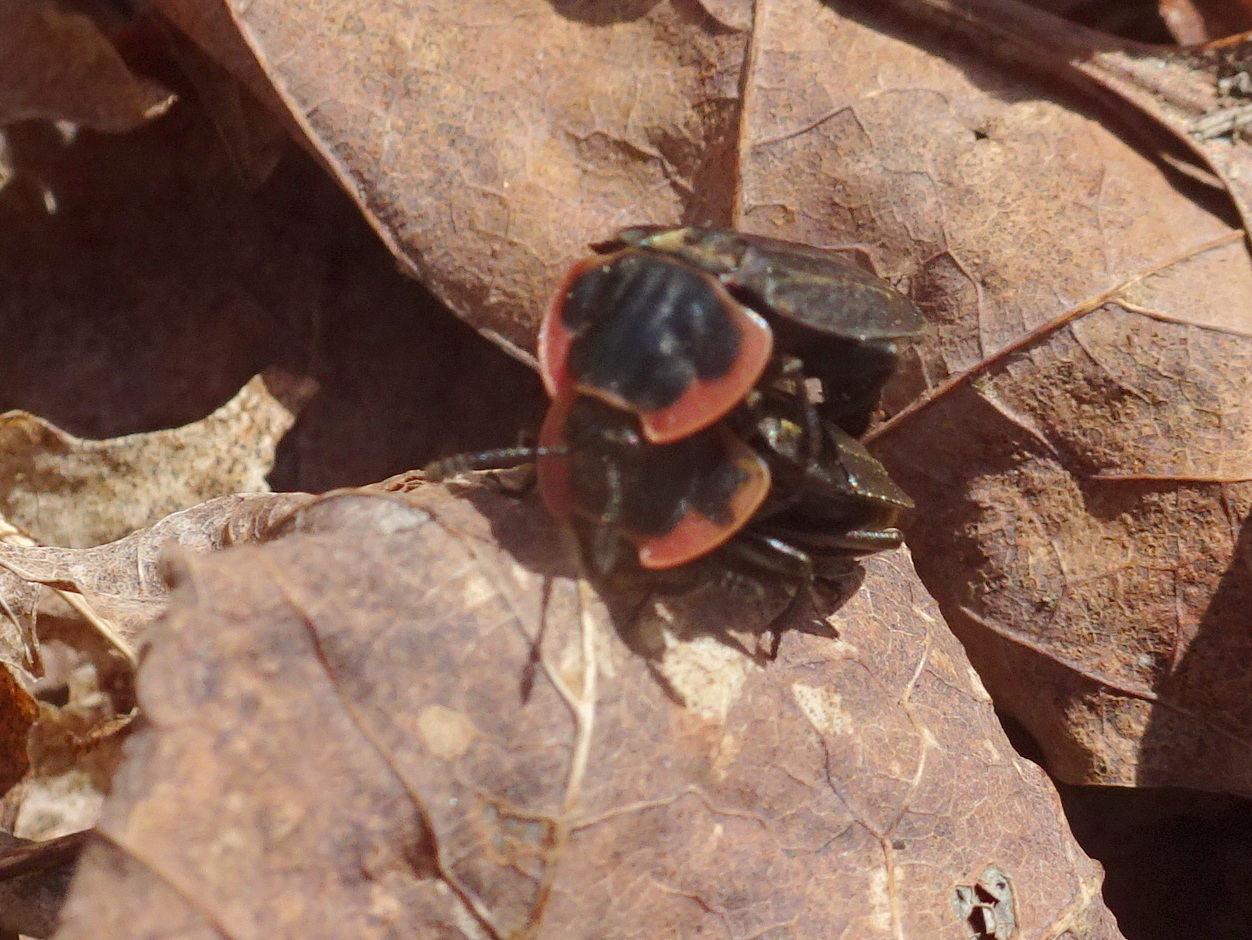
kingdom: Animalia
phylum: Arthropoda
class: Insecta
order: Coleoptera
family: Staphylinidae
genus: Oiceoptoma
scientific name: Oiceoptoma noveboracense
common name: Margined carrion beetle
